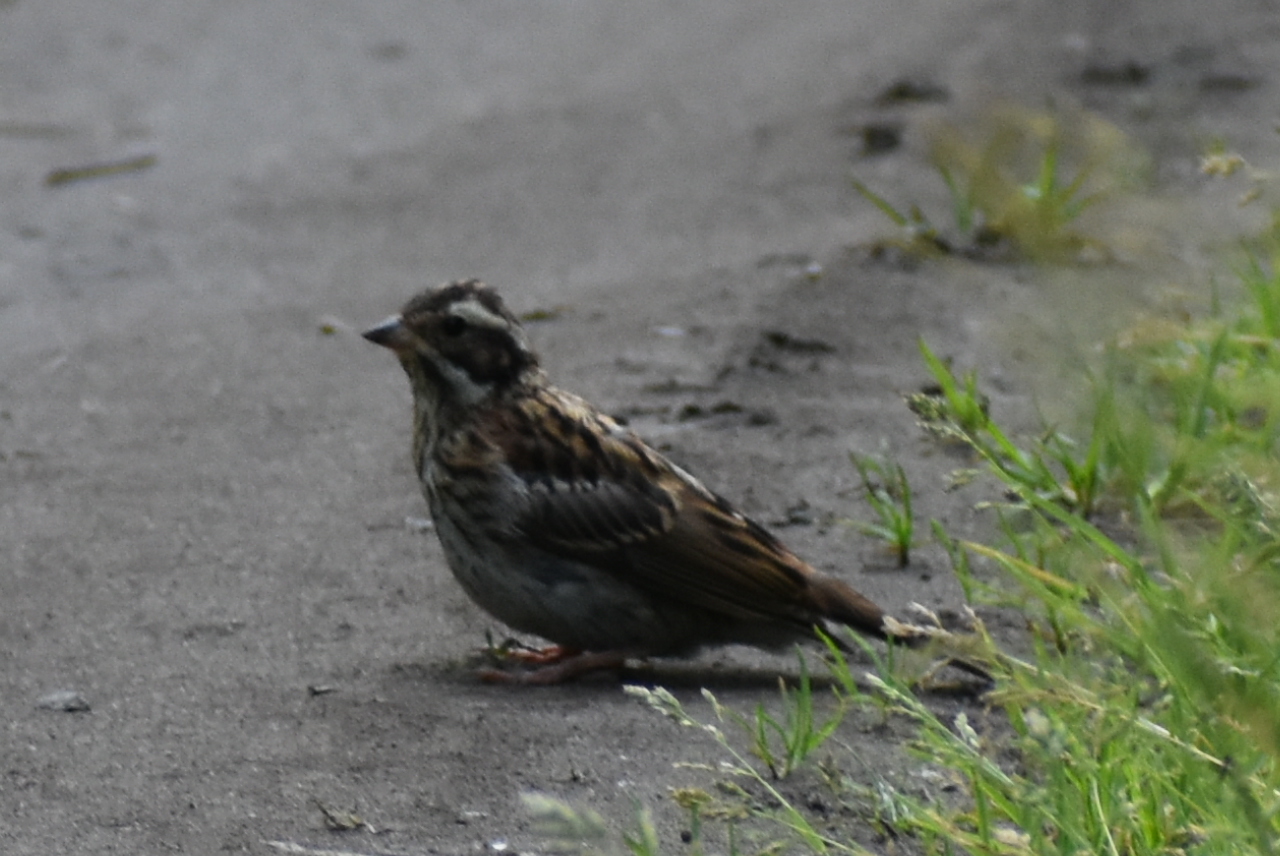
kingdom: Animalia
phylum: Chordata
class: Aves
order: Passeriformes
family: Emberizidae
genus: Emberiza
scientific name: Emberiza rustica
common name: Rustic bunting
